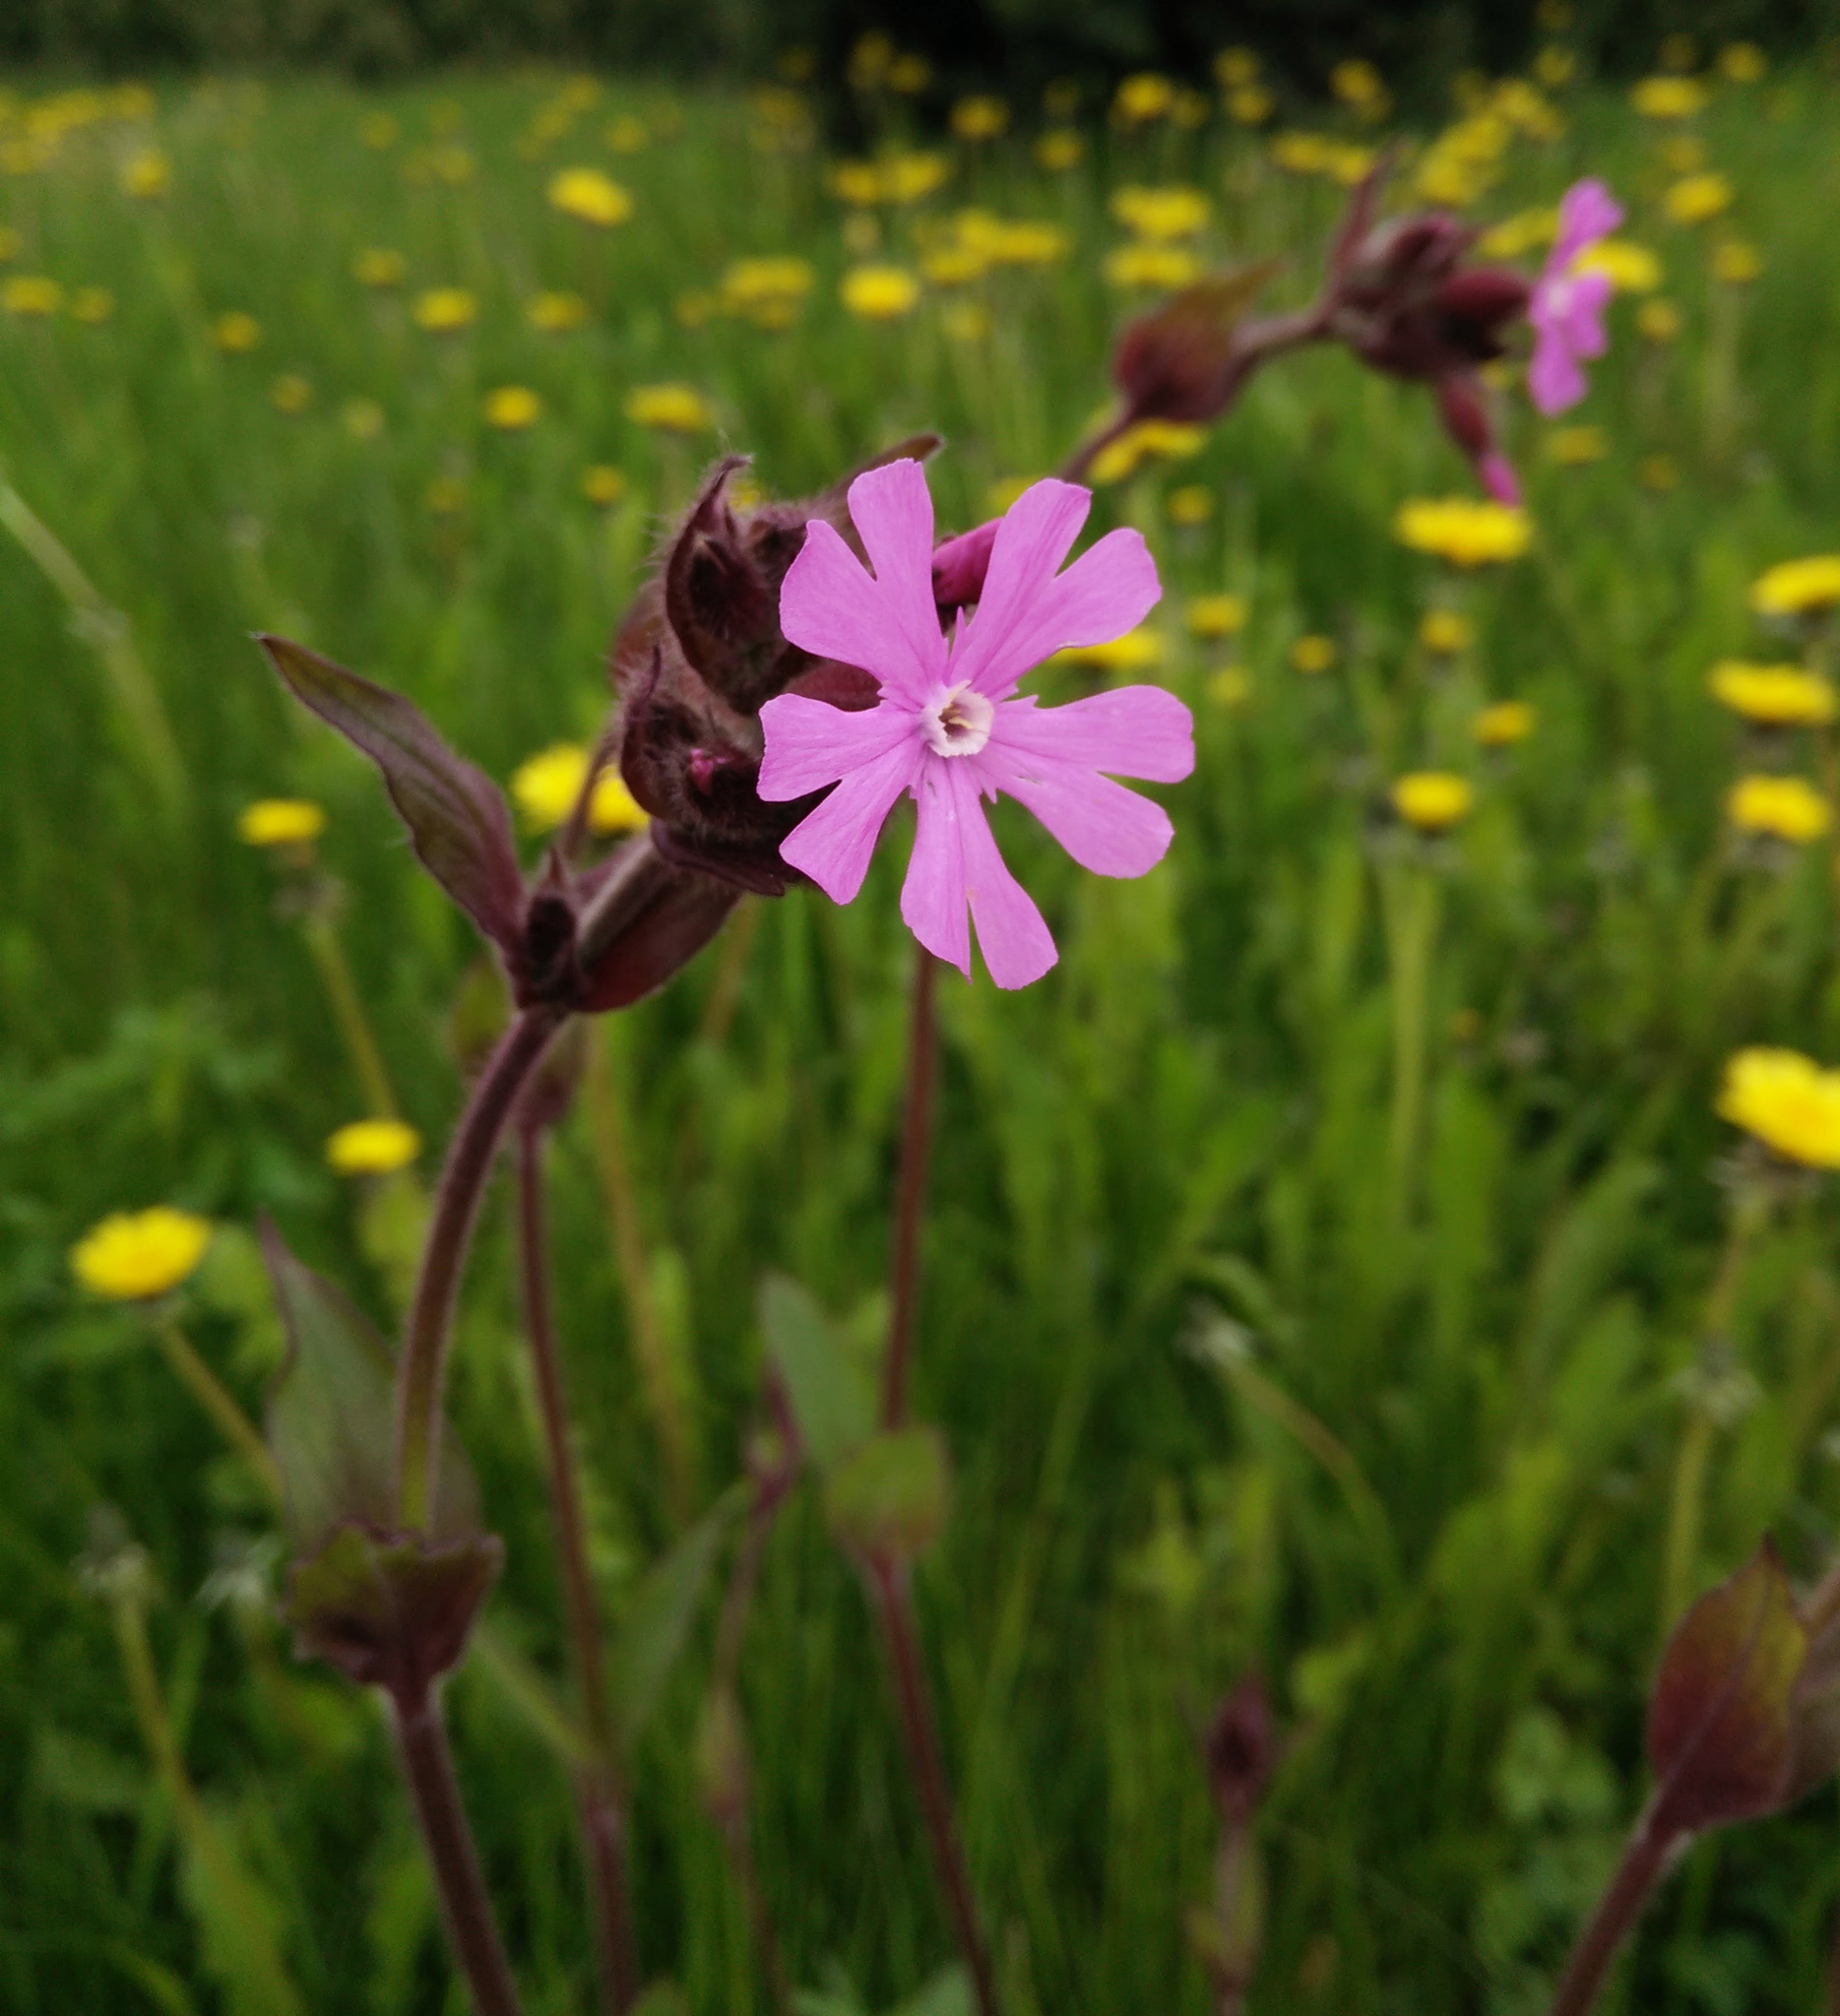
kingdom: Plantae
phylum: Tracheophyta
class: Magnoliopsida
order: Caryophyllales
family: Caryophyllaceae
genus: Silene
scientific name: Silene dioica
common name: Red campion
